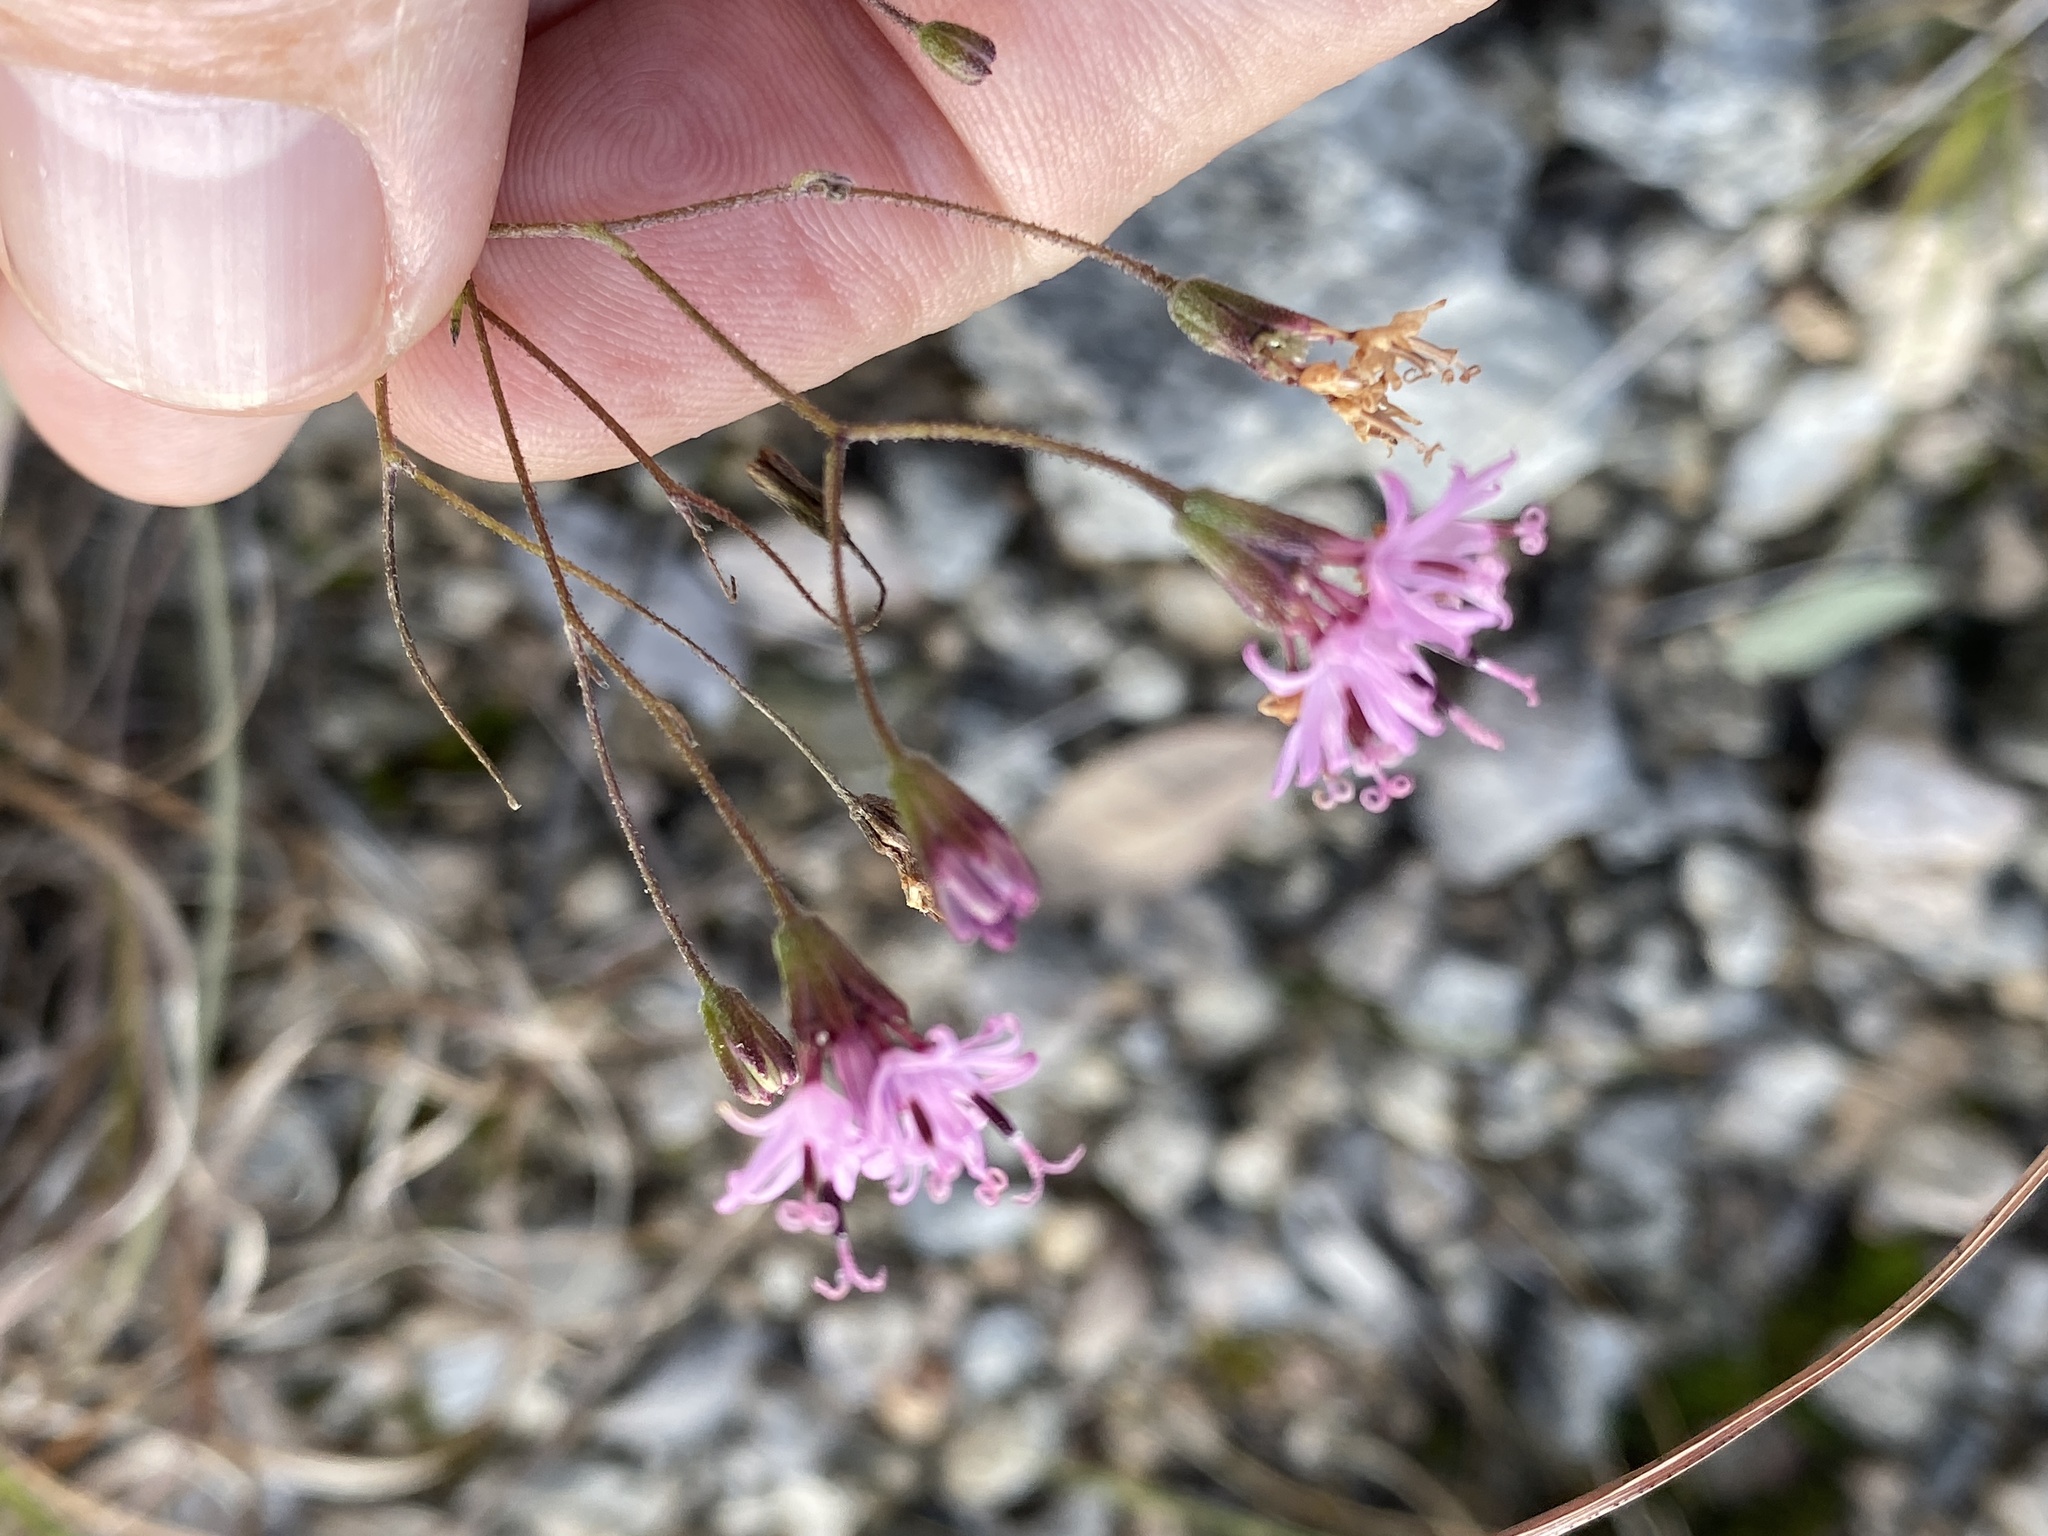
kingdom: Plantae
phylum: Tracheophyta
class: Magnoliopsida
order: Asterales
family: Asteraceae
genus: Palafoxia
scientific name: Palafoxia callosa
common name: Small palafox
